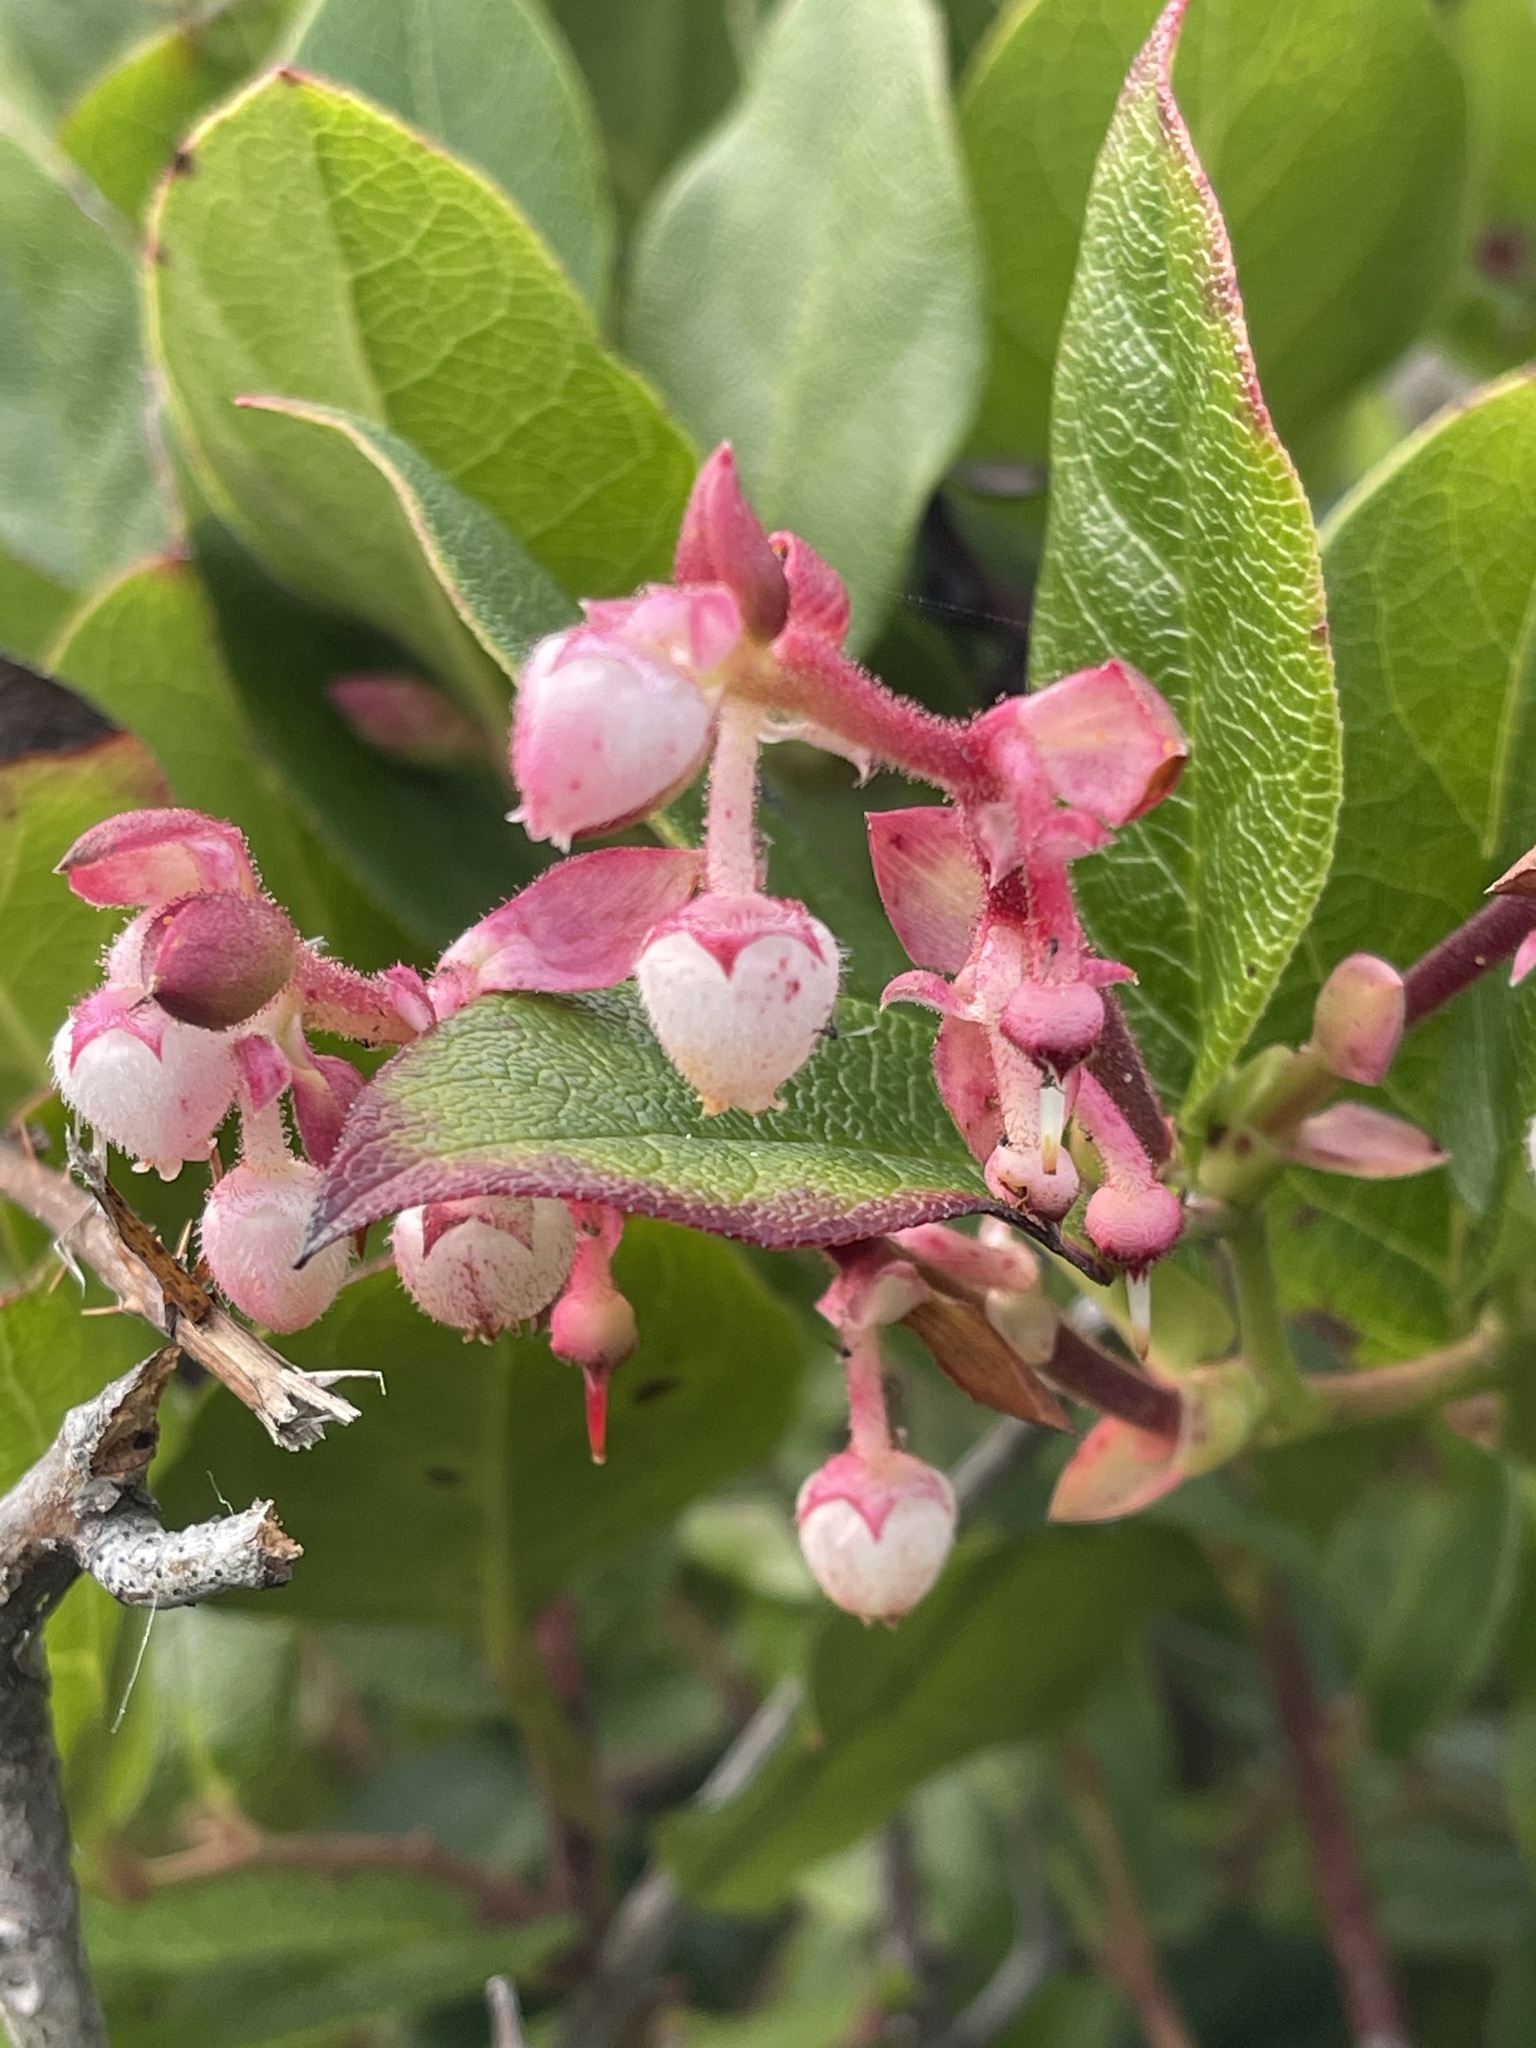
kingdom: Plantae
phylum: Tracheophyta
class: Magnoliopsida
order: Ericales
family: Ericaceae
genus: Gaultheria
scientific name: Gaultheria shallon
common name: Shallon
